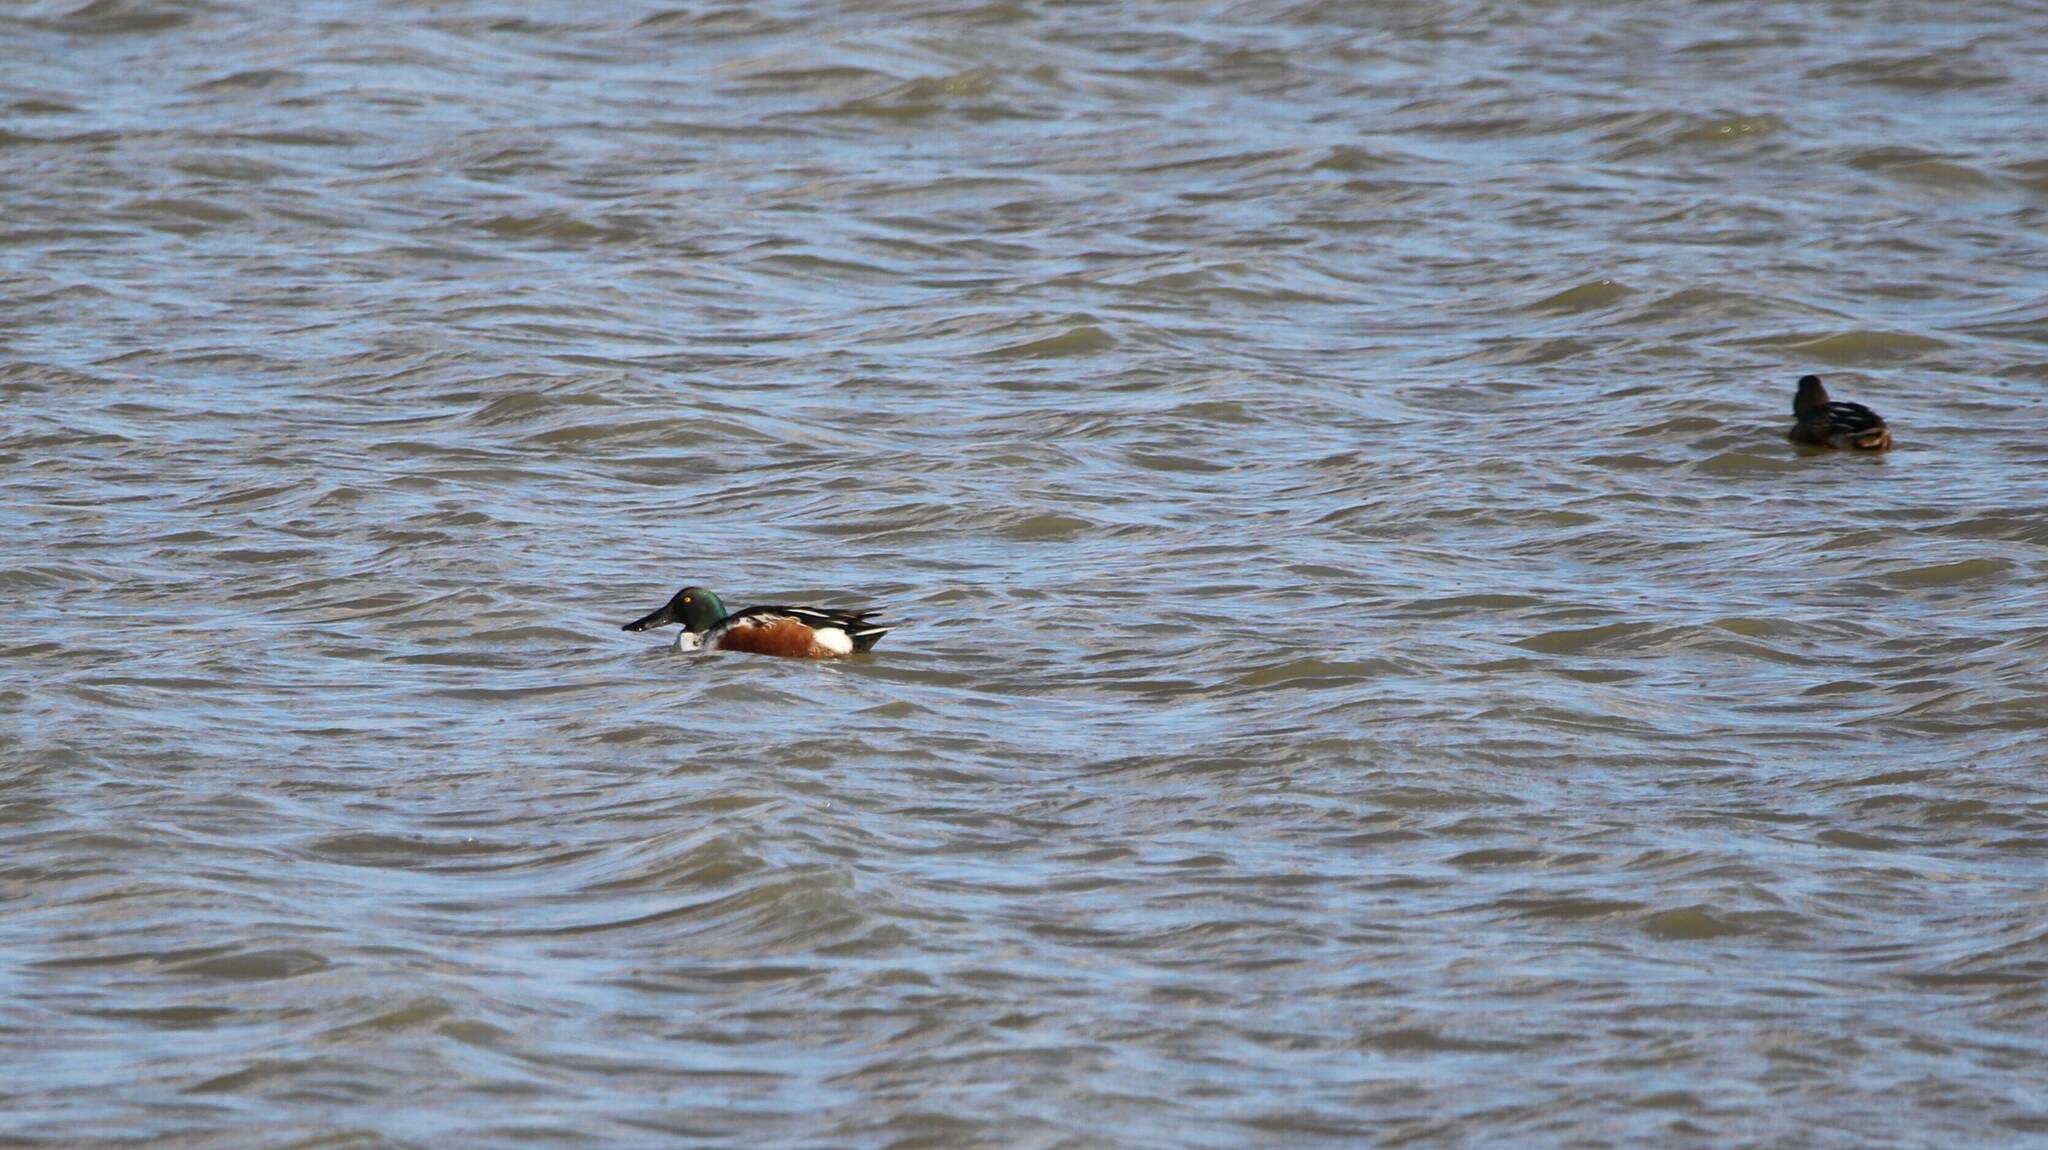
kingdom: Animalia
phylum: Chordata
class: Aves
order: Anseriformes
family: Anatidae
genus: Spatula
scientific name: Spatula clypeata
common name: Northern shoveler
